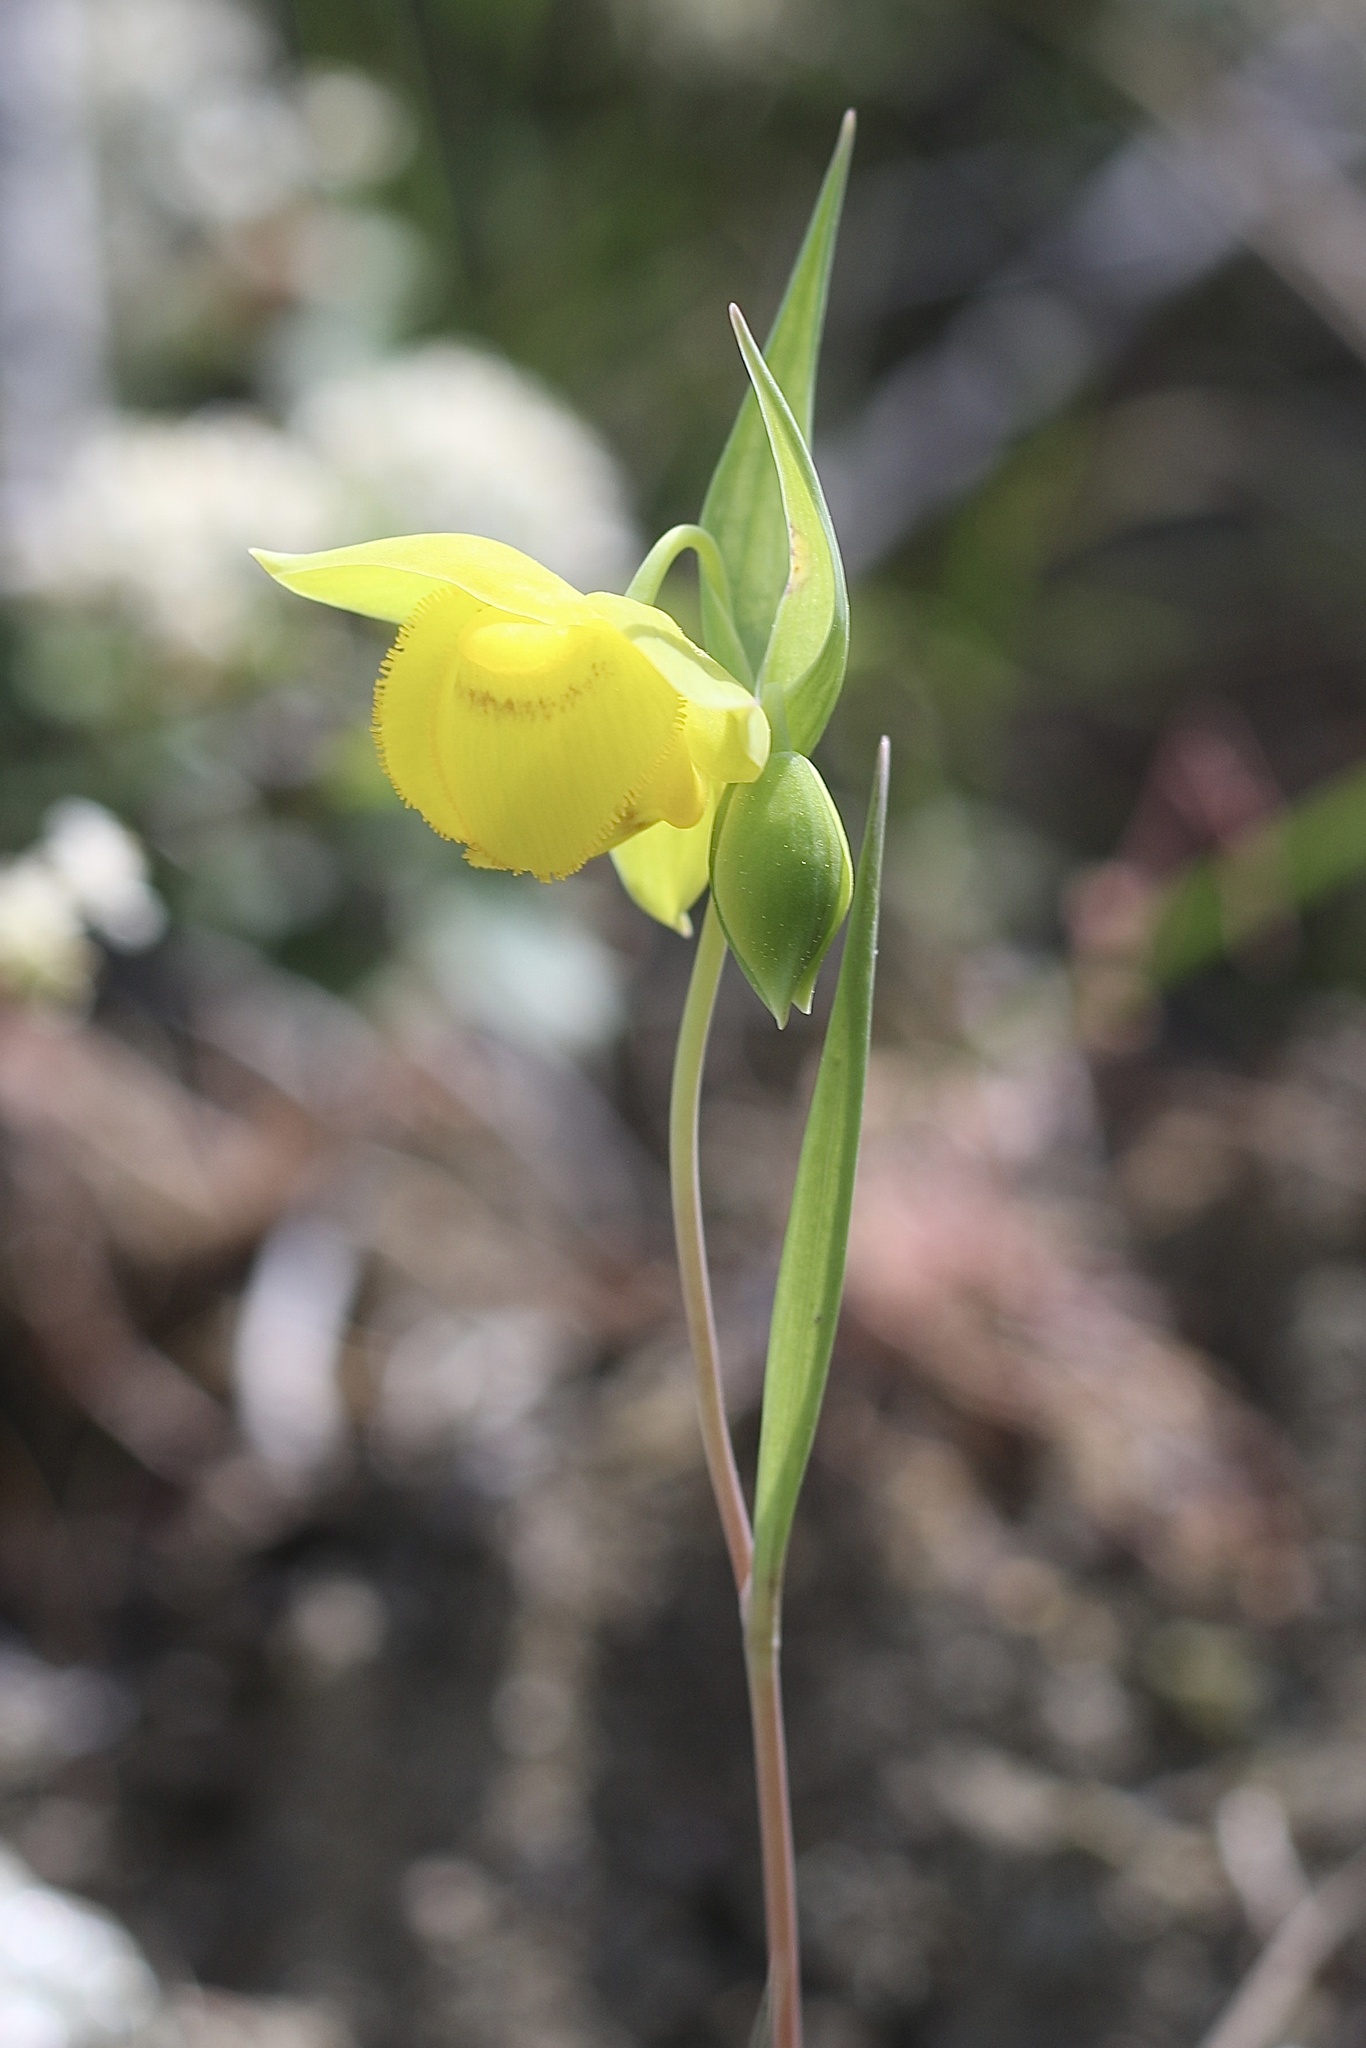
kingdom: Plantae
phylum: Tracheophyta
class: Liliopsida
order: Liliales
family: Liliaceae
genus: Calochortus
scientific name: Calochortus amabilis
